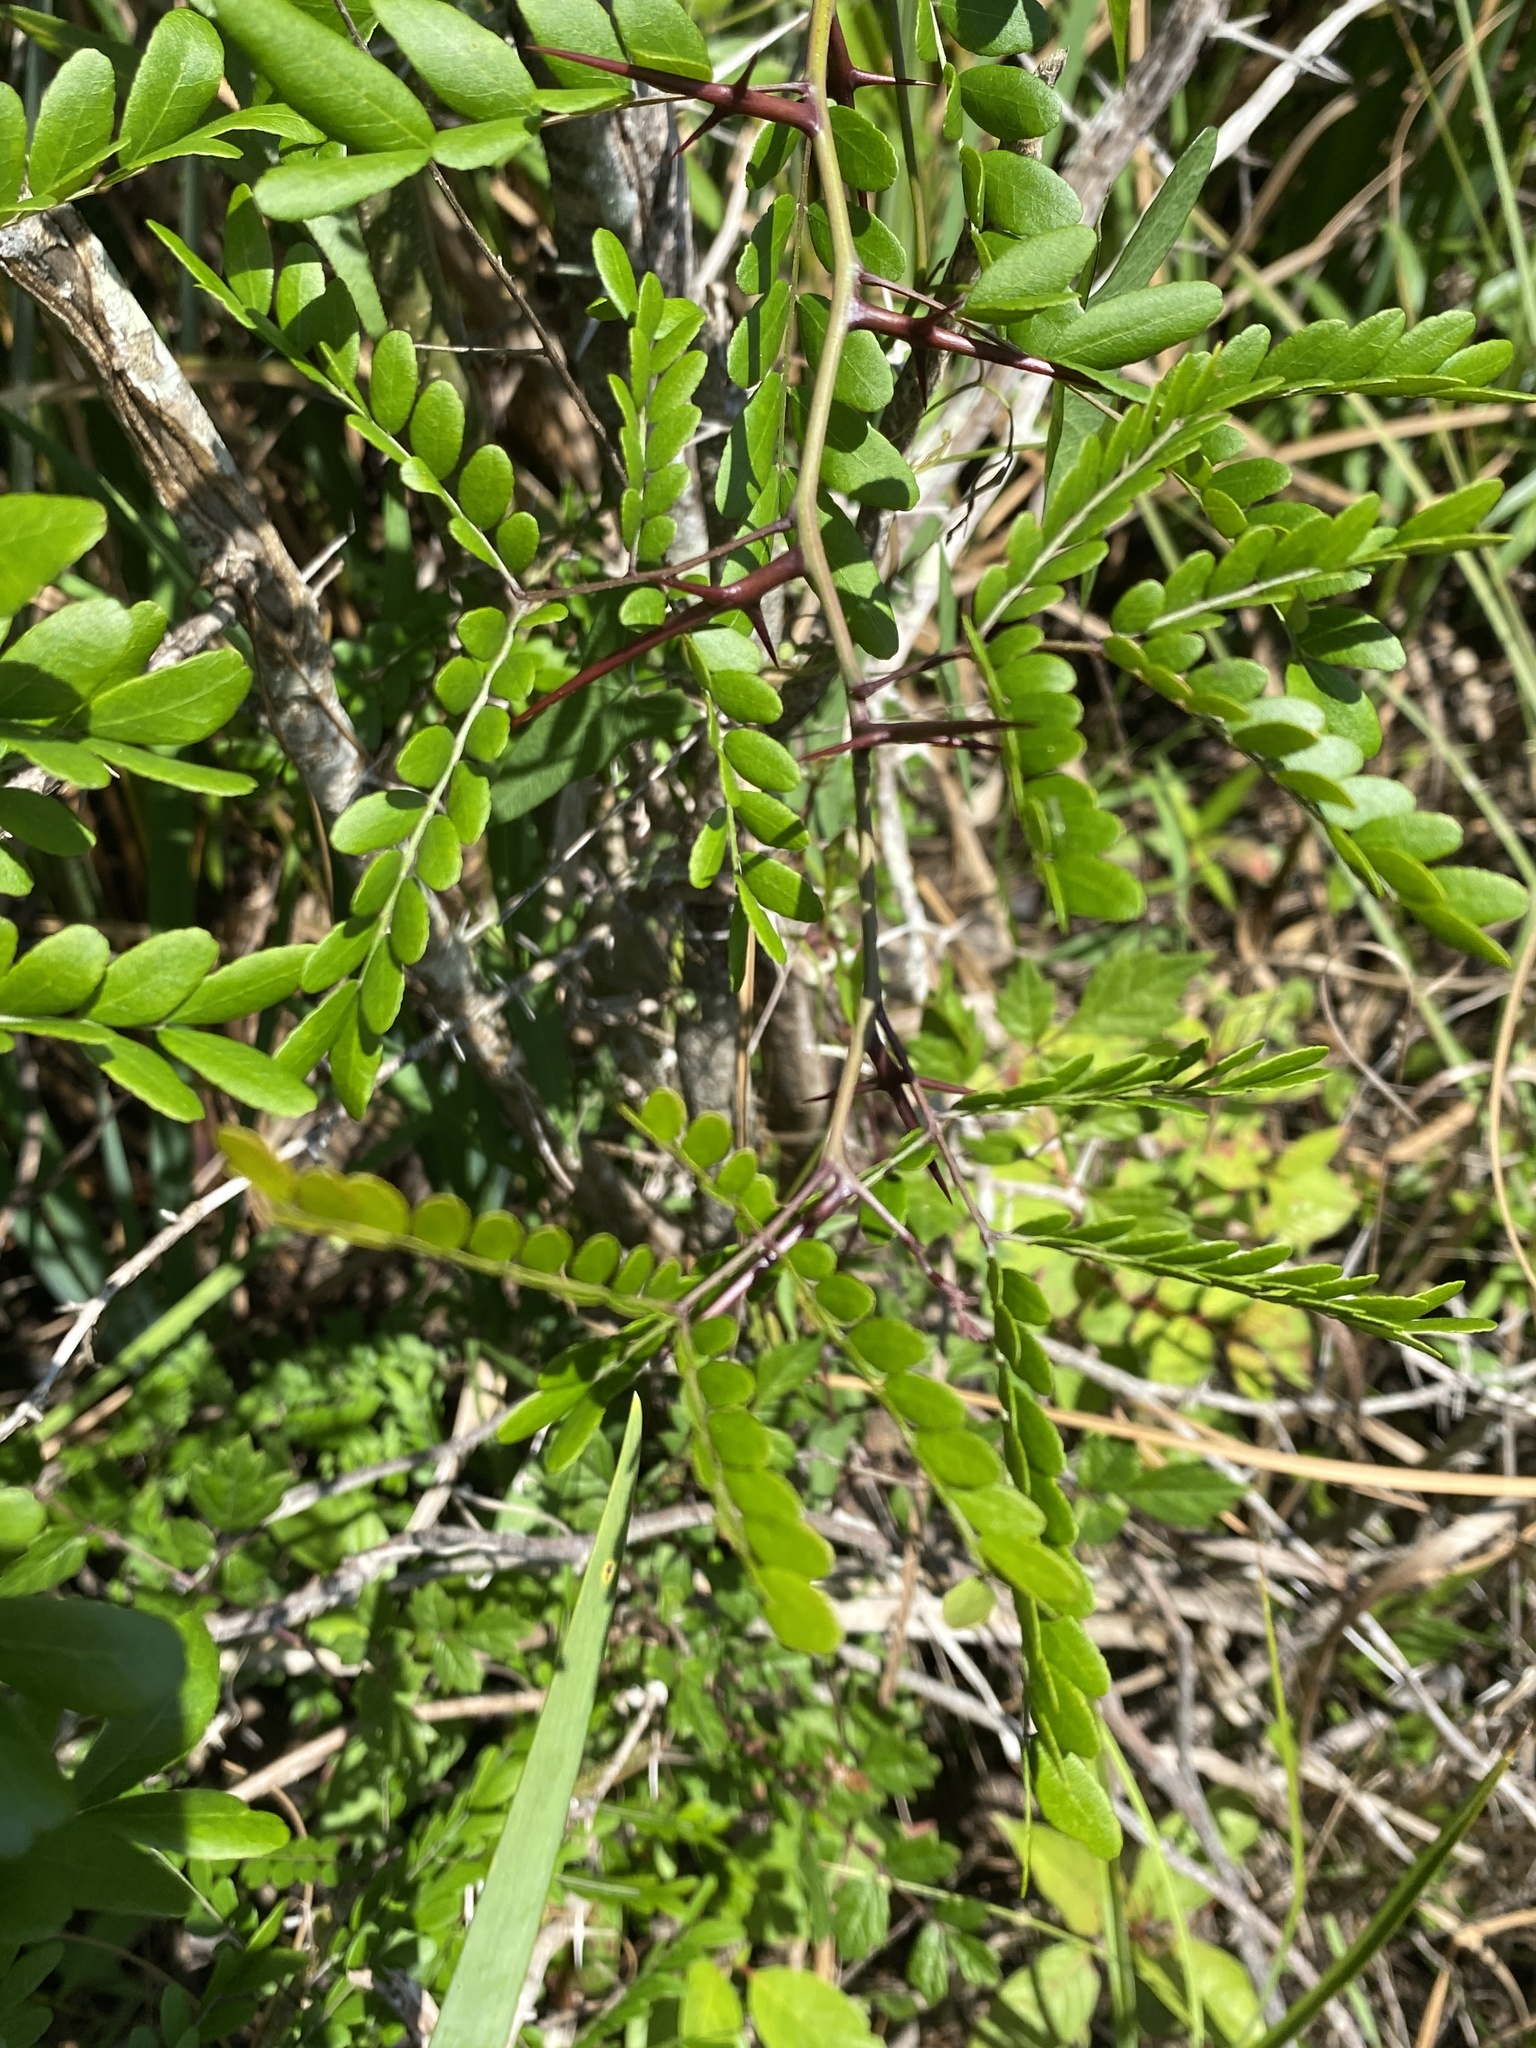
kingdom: Plantae
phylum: Tracheophyta
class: Magnoliopsida
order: Fabales
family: Fabaceae
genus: Gleditsia
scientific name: Gleditsia aquatica
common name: Swamp-locust
